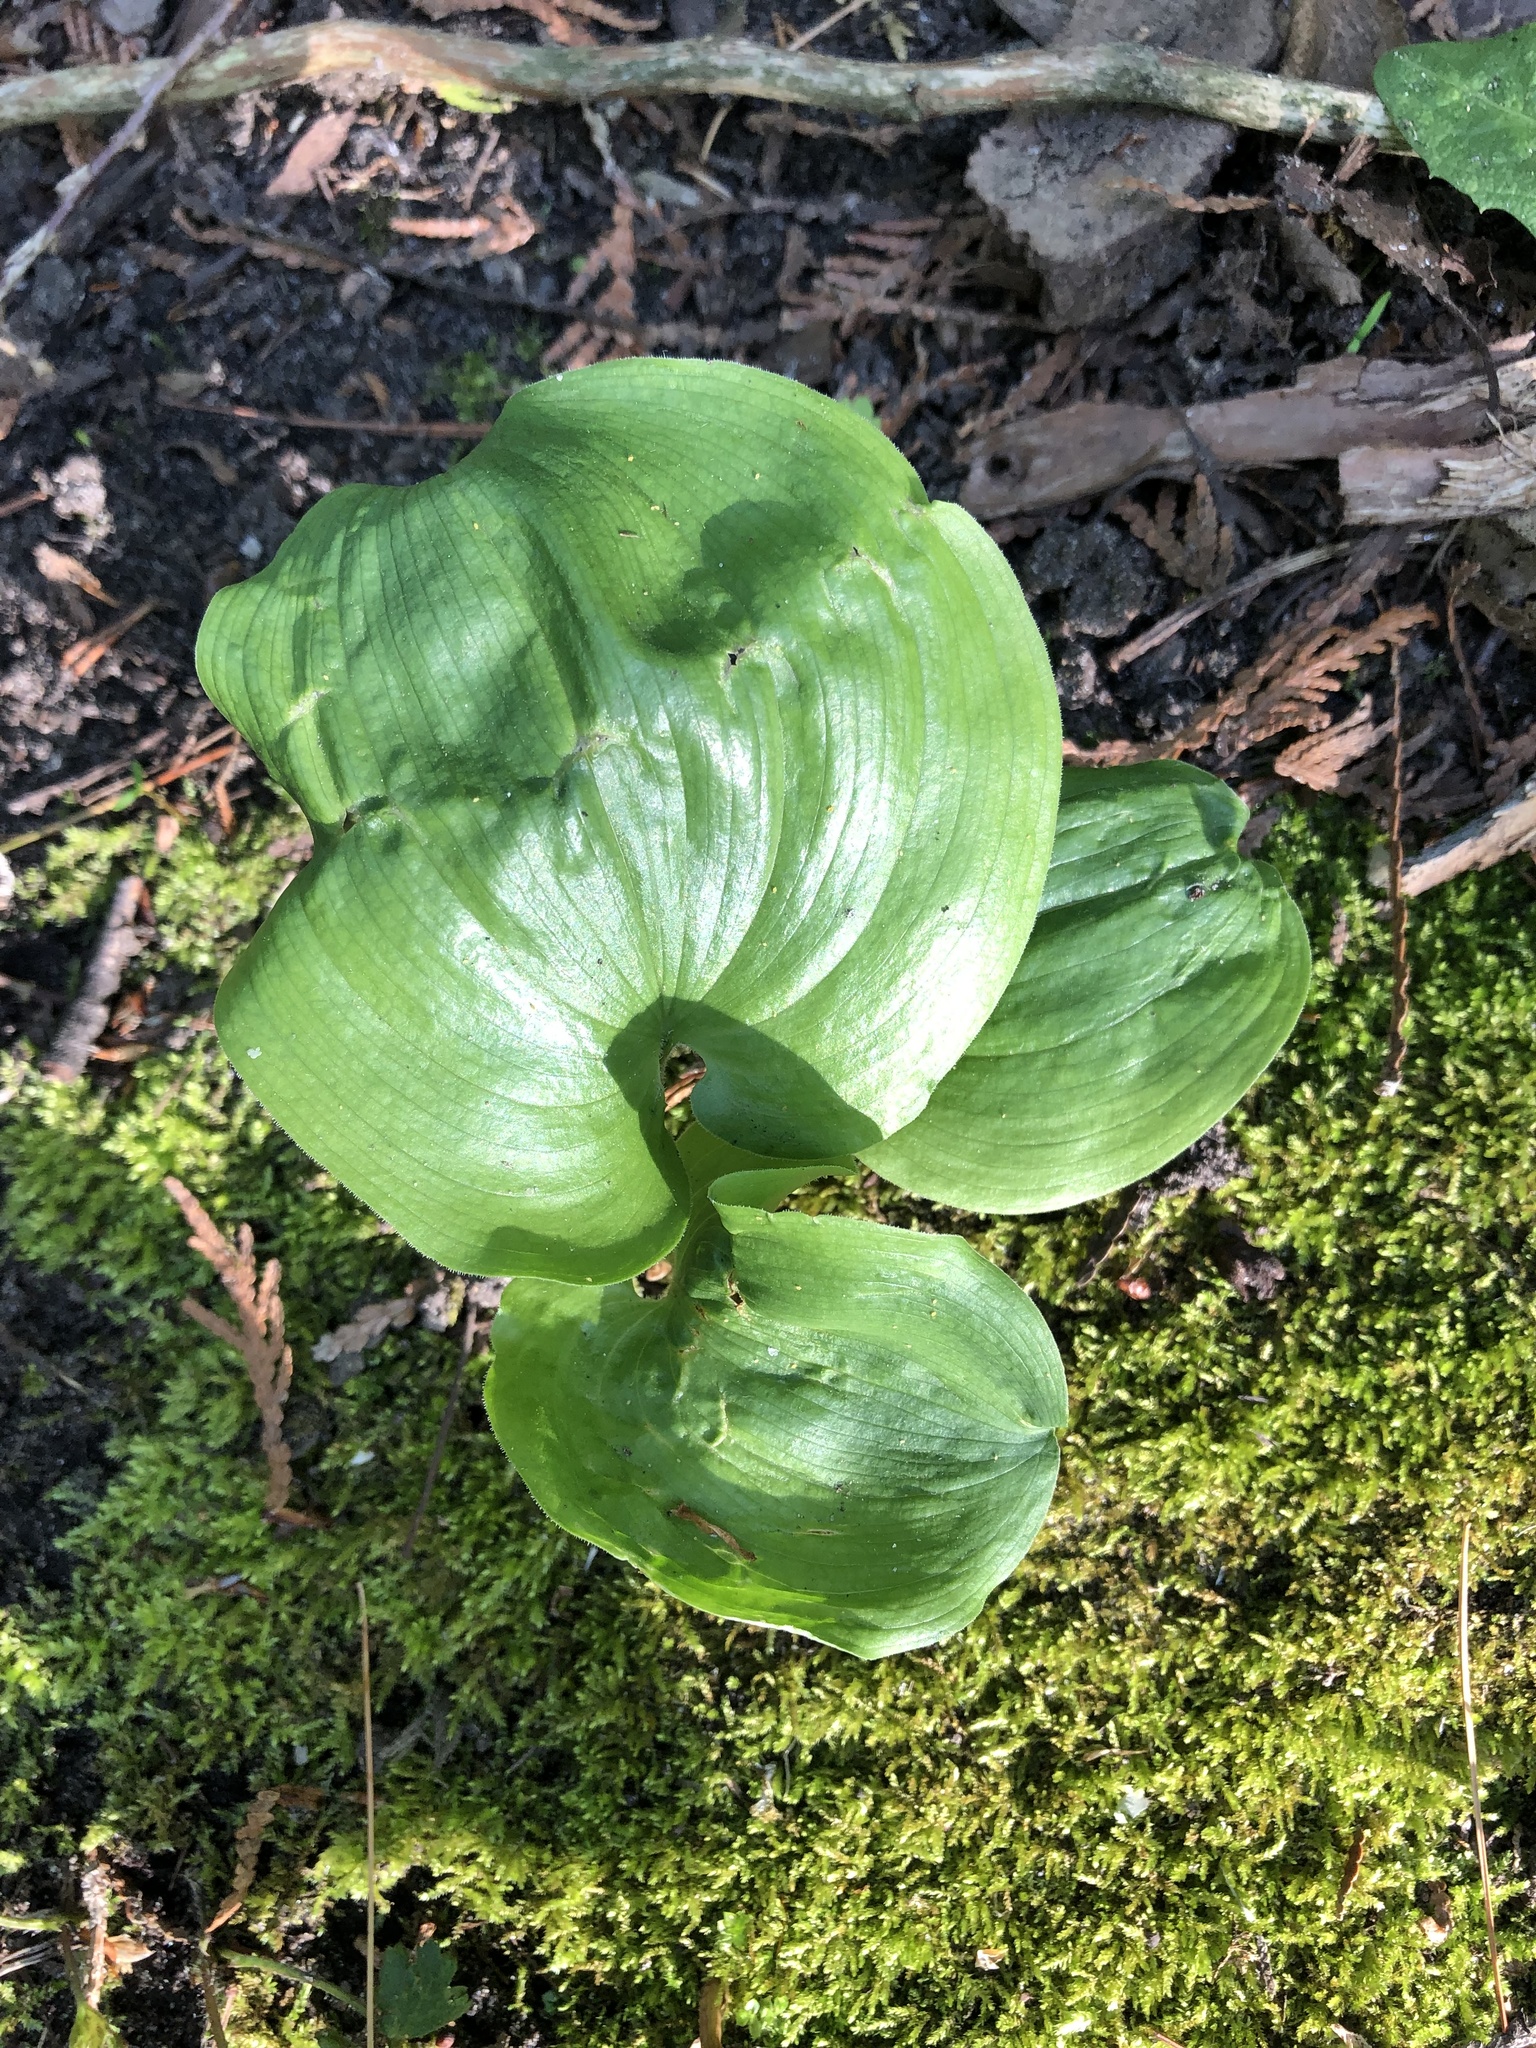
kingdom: Plantae
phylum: Tracheophyta
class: Liliopsida
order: Asparagales
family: Asparagaceae
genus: Maianthemum
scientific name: Maianthemum canadense
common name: False lily-of-the-valley
